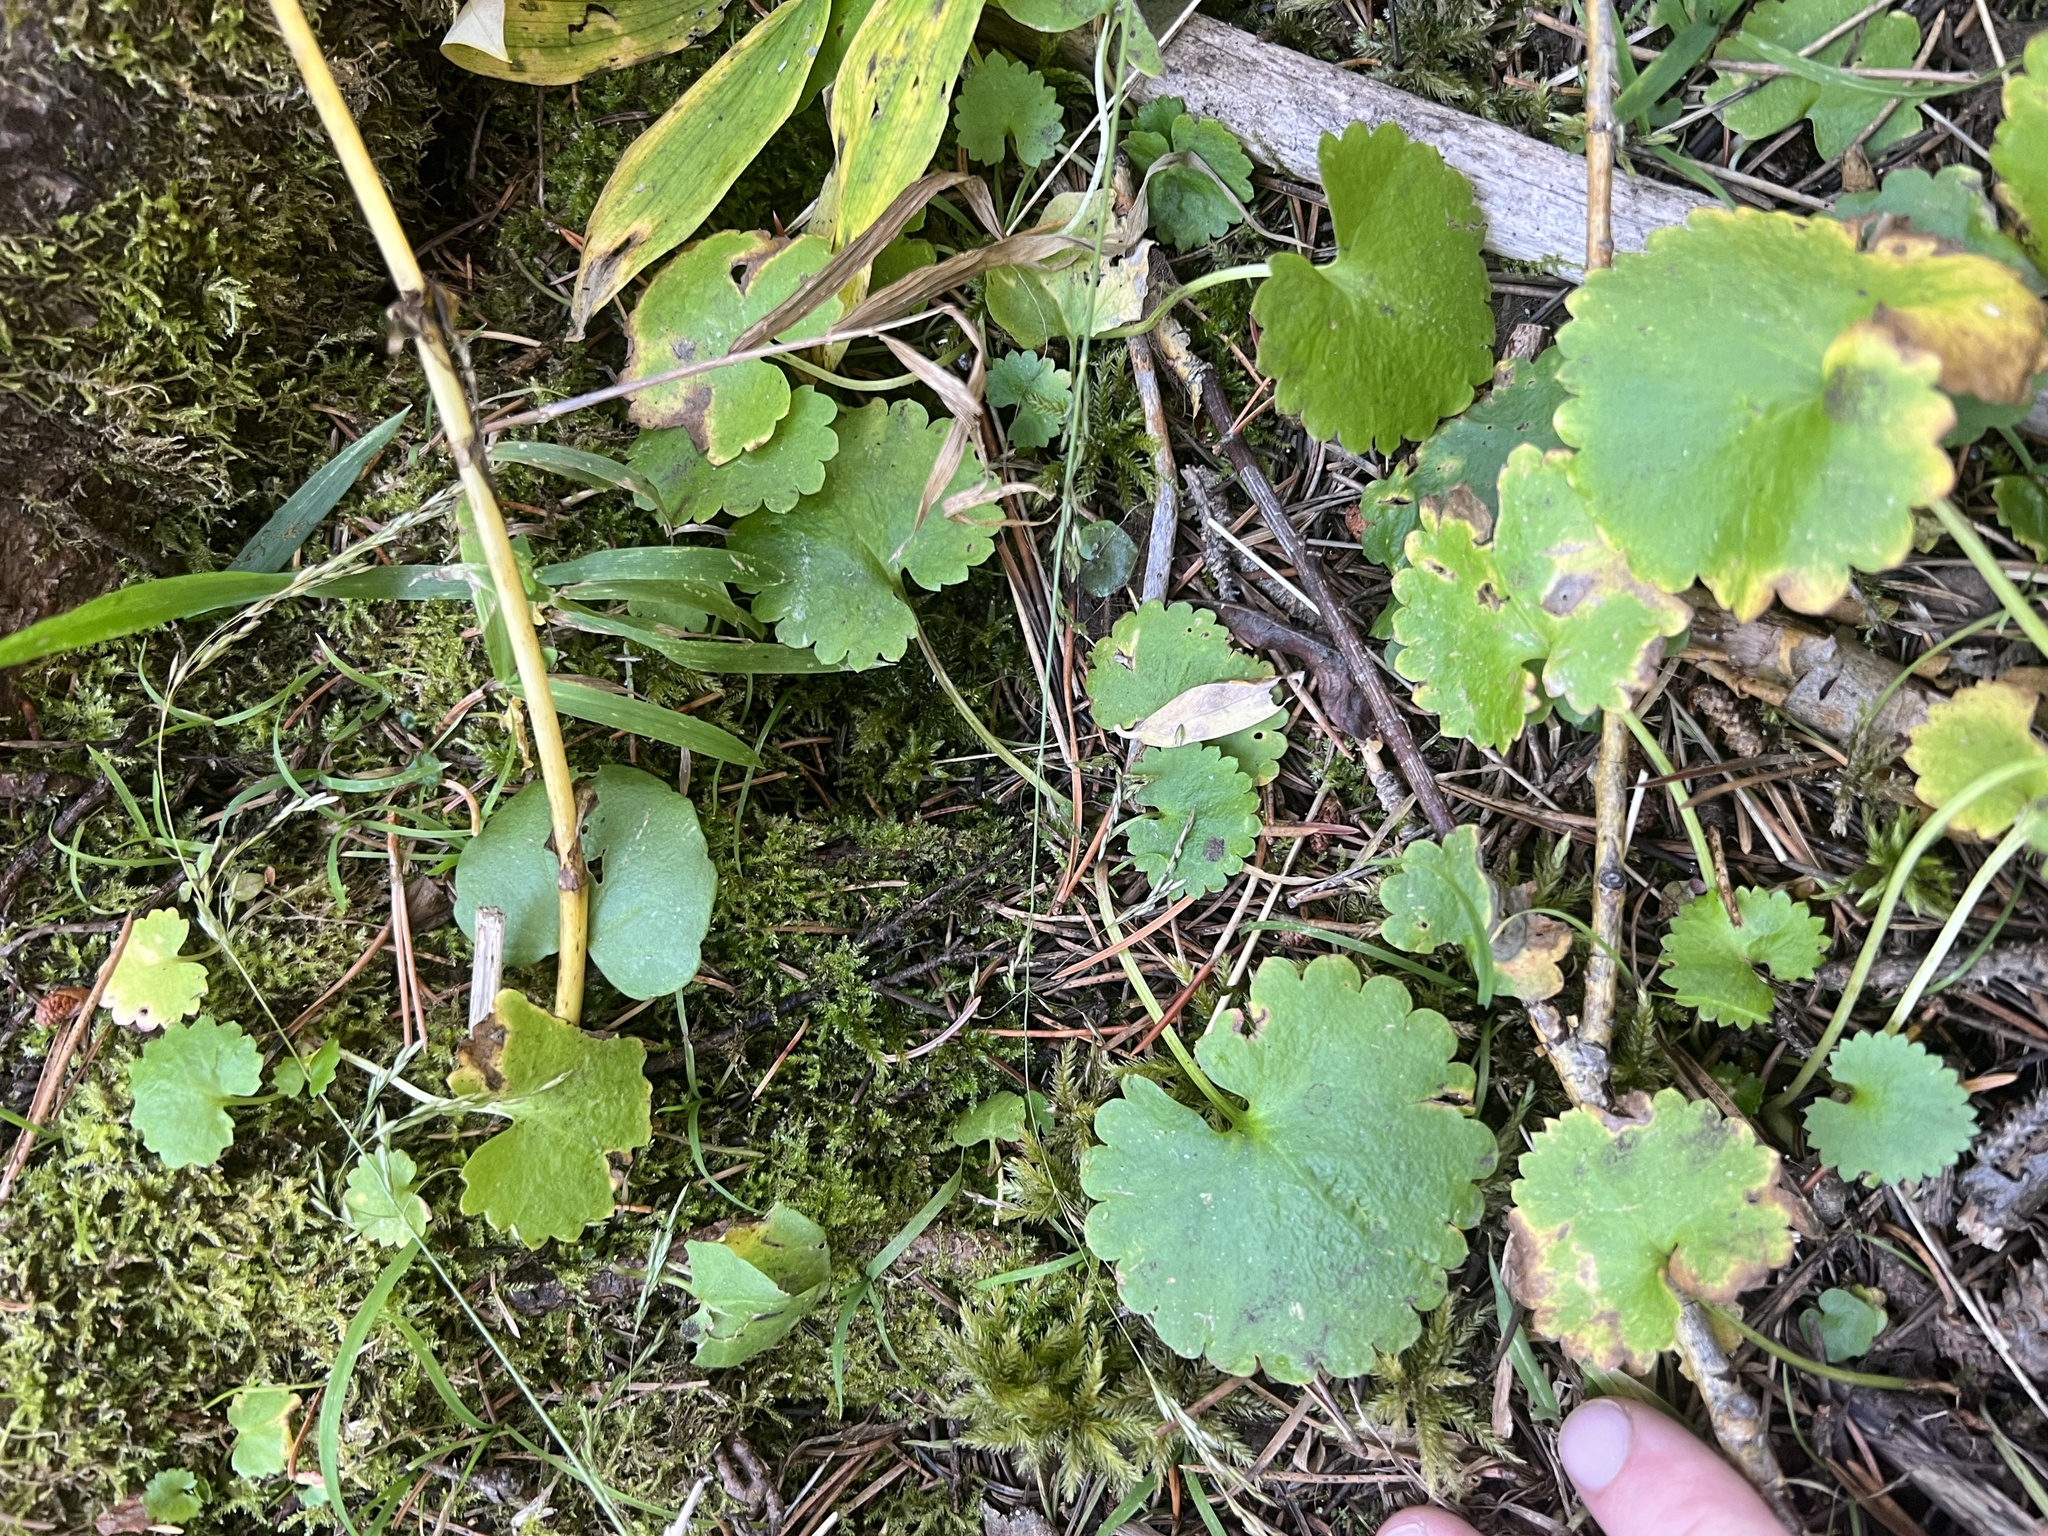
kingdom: Plantae
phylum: Tracheophyta
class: Magnoliopsida
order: Saxifragales
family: Saxifragaceae
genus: Micranthes
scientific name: Micranthes odontoloma
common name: Brook saxifrage
